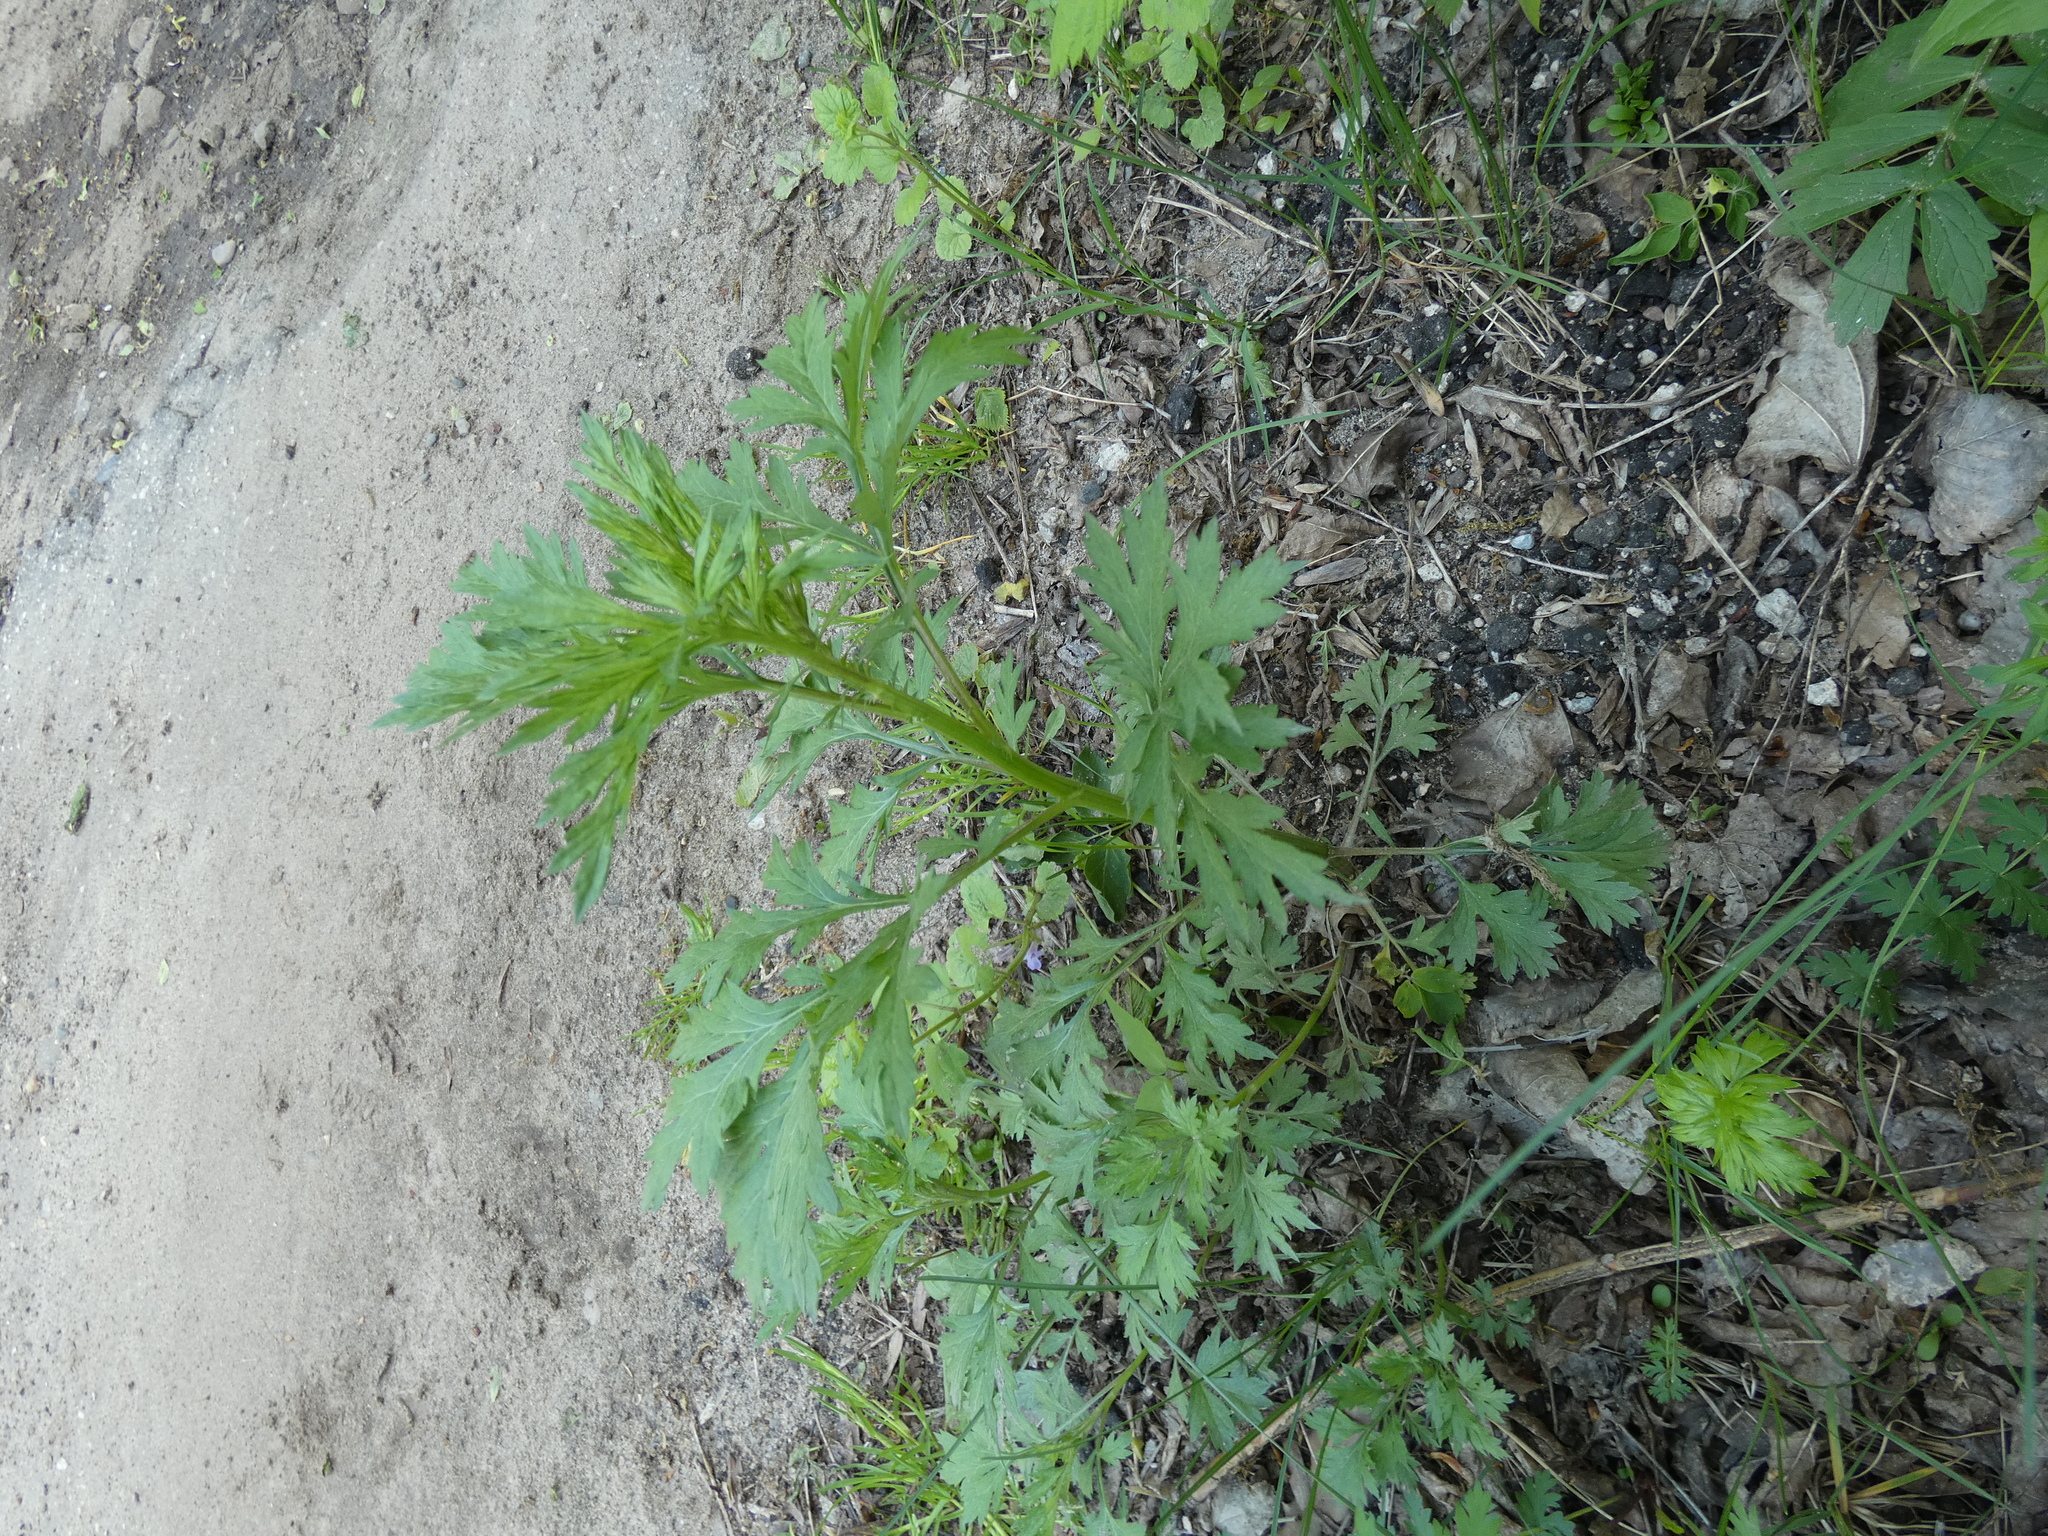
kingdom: Plantae
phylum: Tracheophyta
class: Magnoliopsida
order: Asterales
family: Asteraceae
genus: Artemisia
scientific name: Artemisia vulgaris
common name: Mugwort
